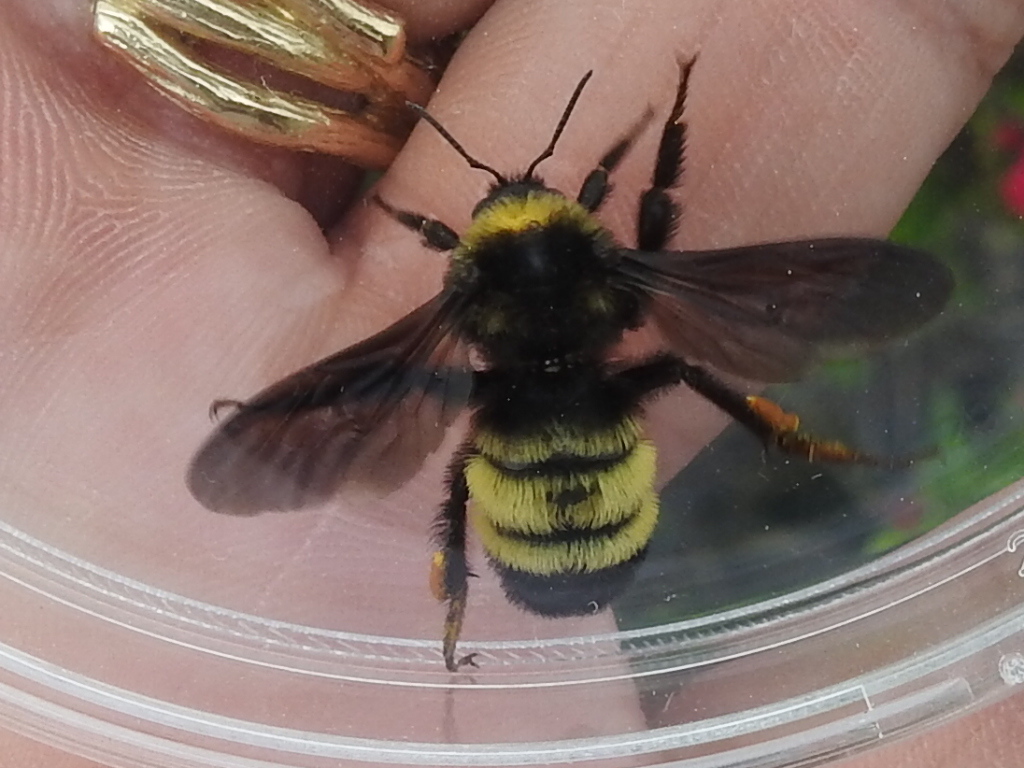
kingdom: Animalia
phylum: Arthropoda
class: Insecta
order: Hymenoptera
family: Apidae
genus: Bombus
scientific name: Bombus pensylvanicus
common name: Bumble bee
